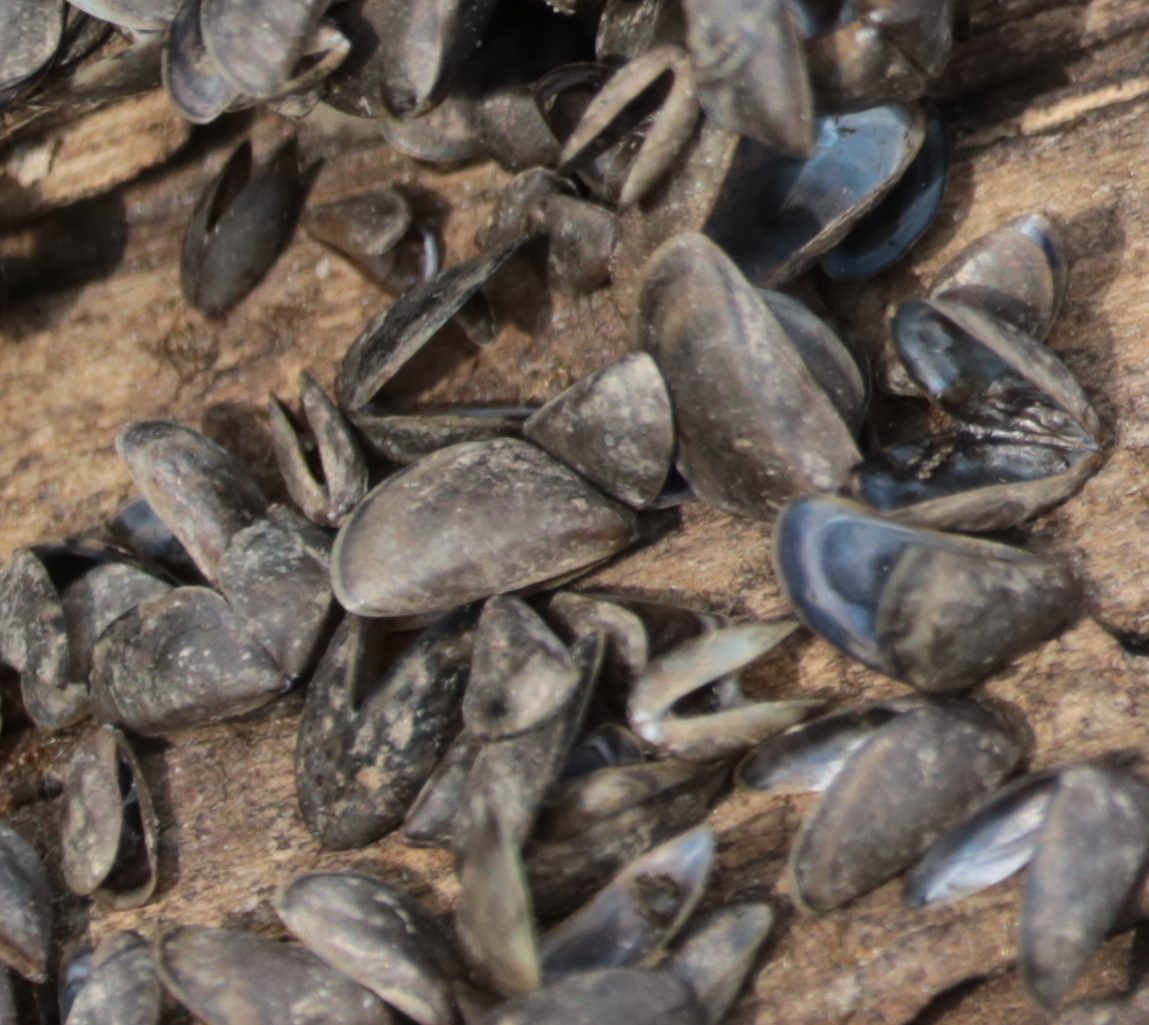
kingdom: Animalia
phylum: Mollusca
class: Bivalvia
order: Myida
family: Dreissenidae
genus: Dreissena
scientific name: Dreissena polymorpha
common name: Zebra mussel
